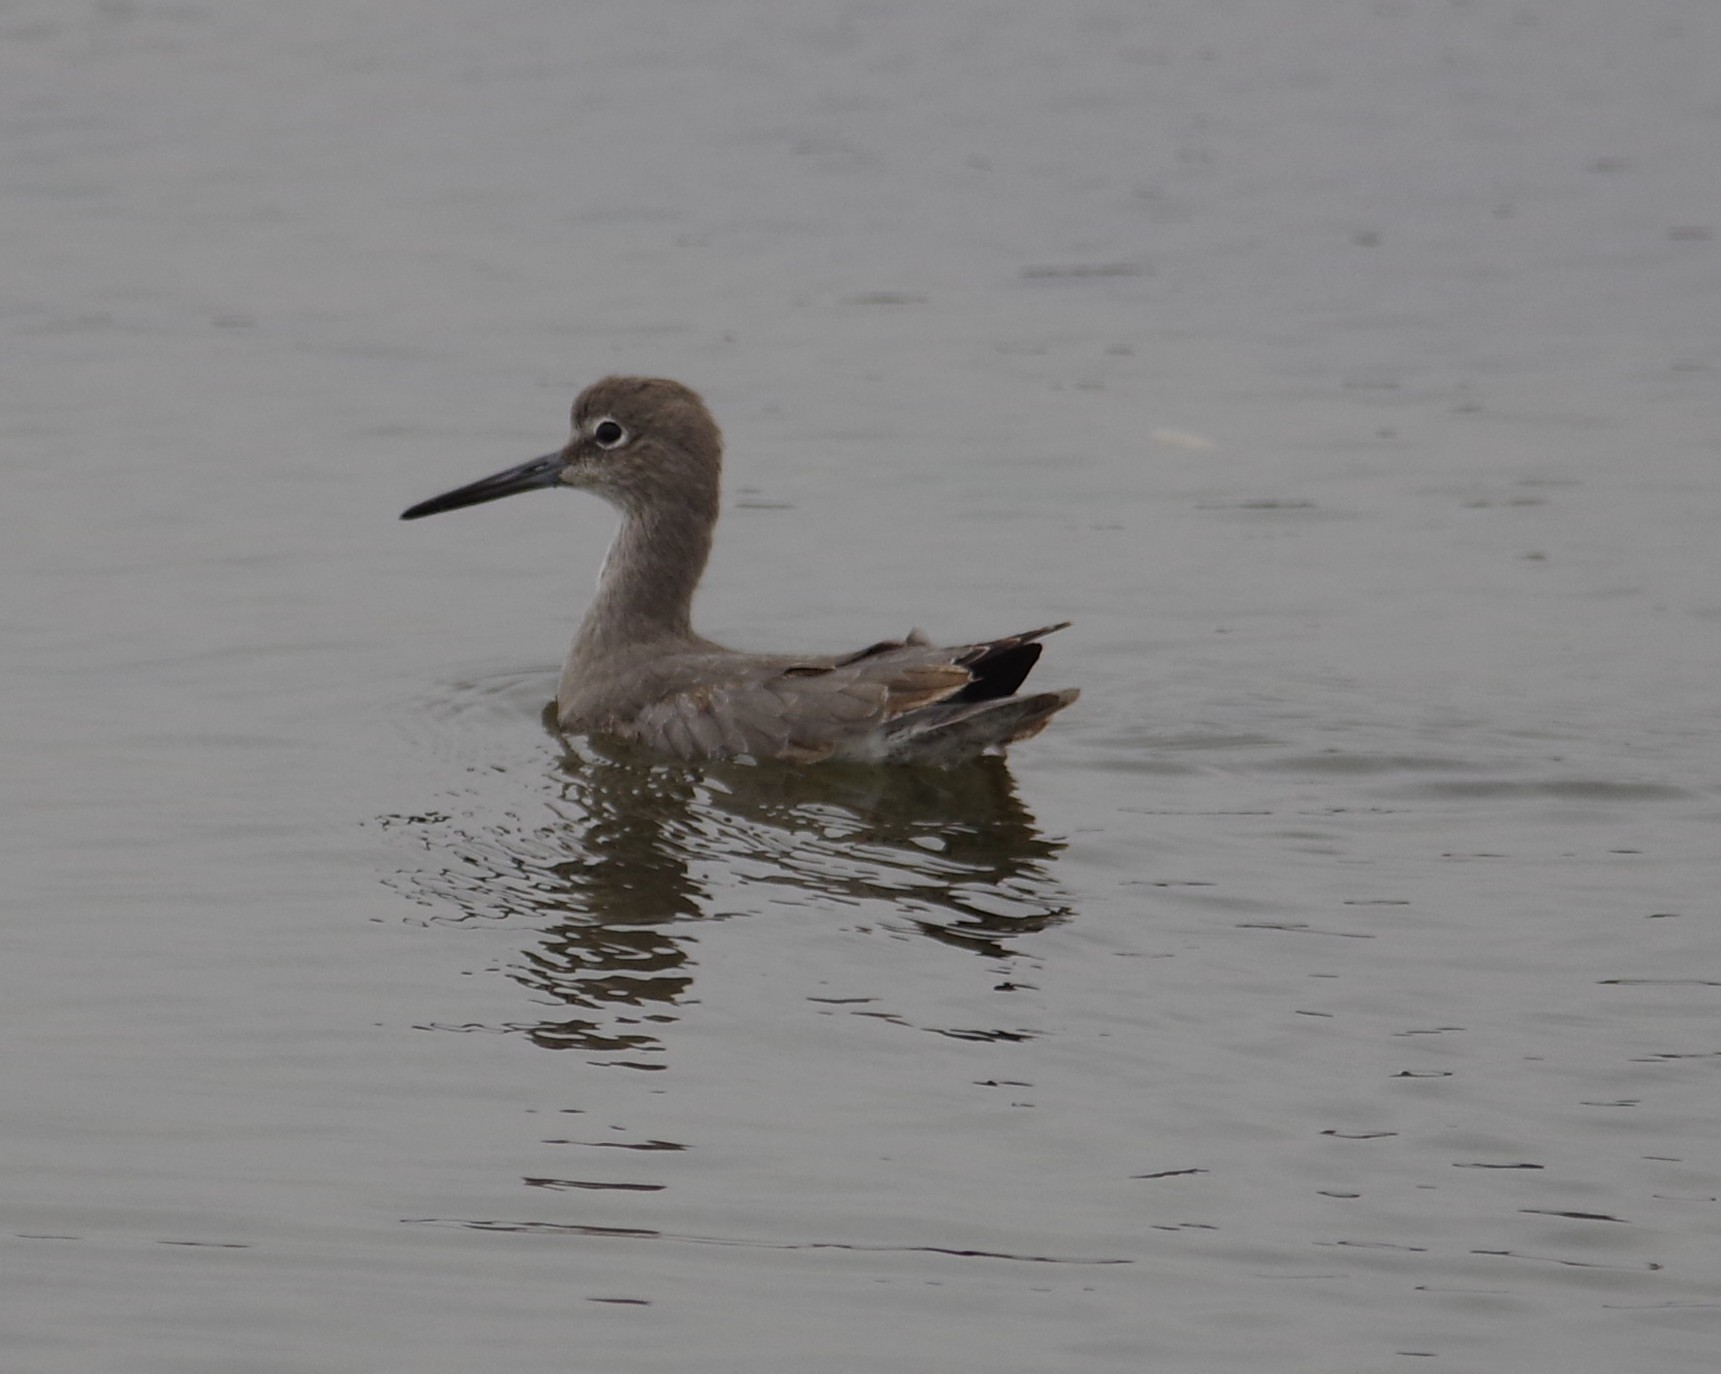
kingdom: Animalia
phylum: Chordata
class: Aves
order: Charadriiformes
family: Scolopacidae
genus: Tringa
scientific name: Tringa semipalmata
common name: Willet
